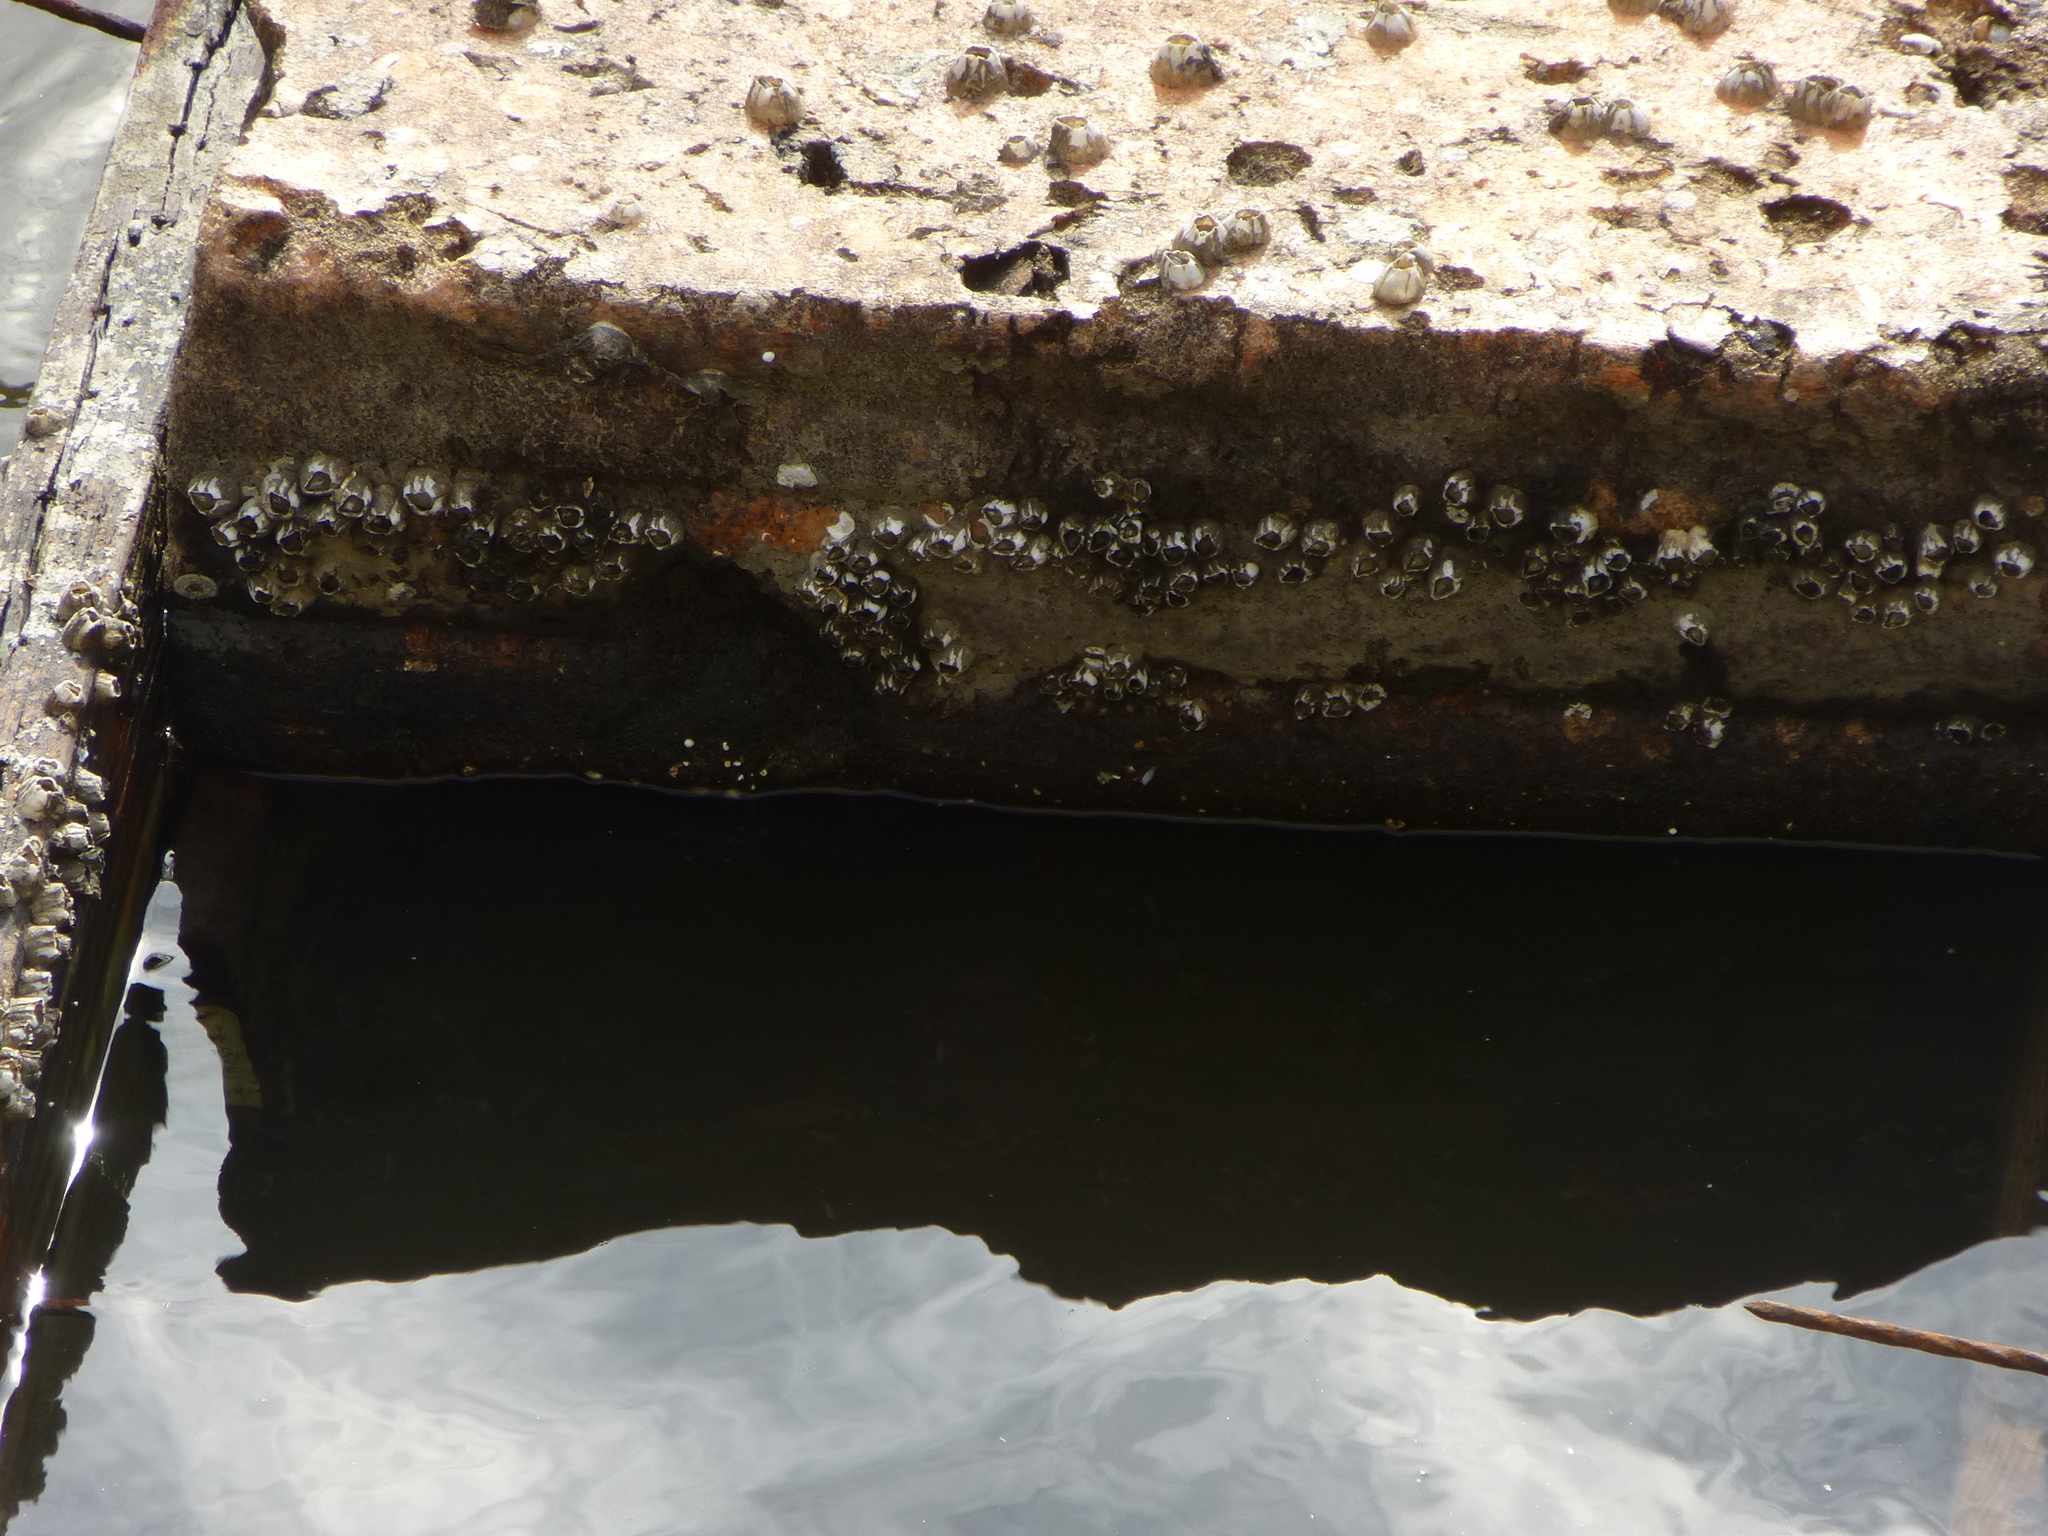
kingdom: Animalia
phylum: Arthropoda
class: Maxillopoda
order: Sessilia
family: Balanidae
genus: Amphibalanus
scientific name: Amphibalanus subalbidus
